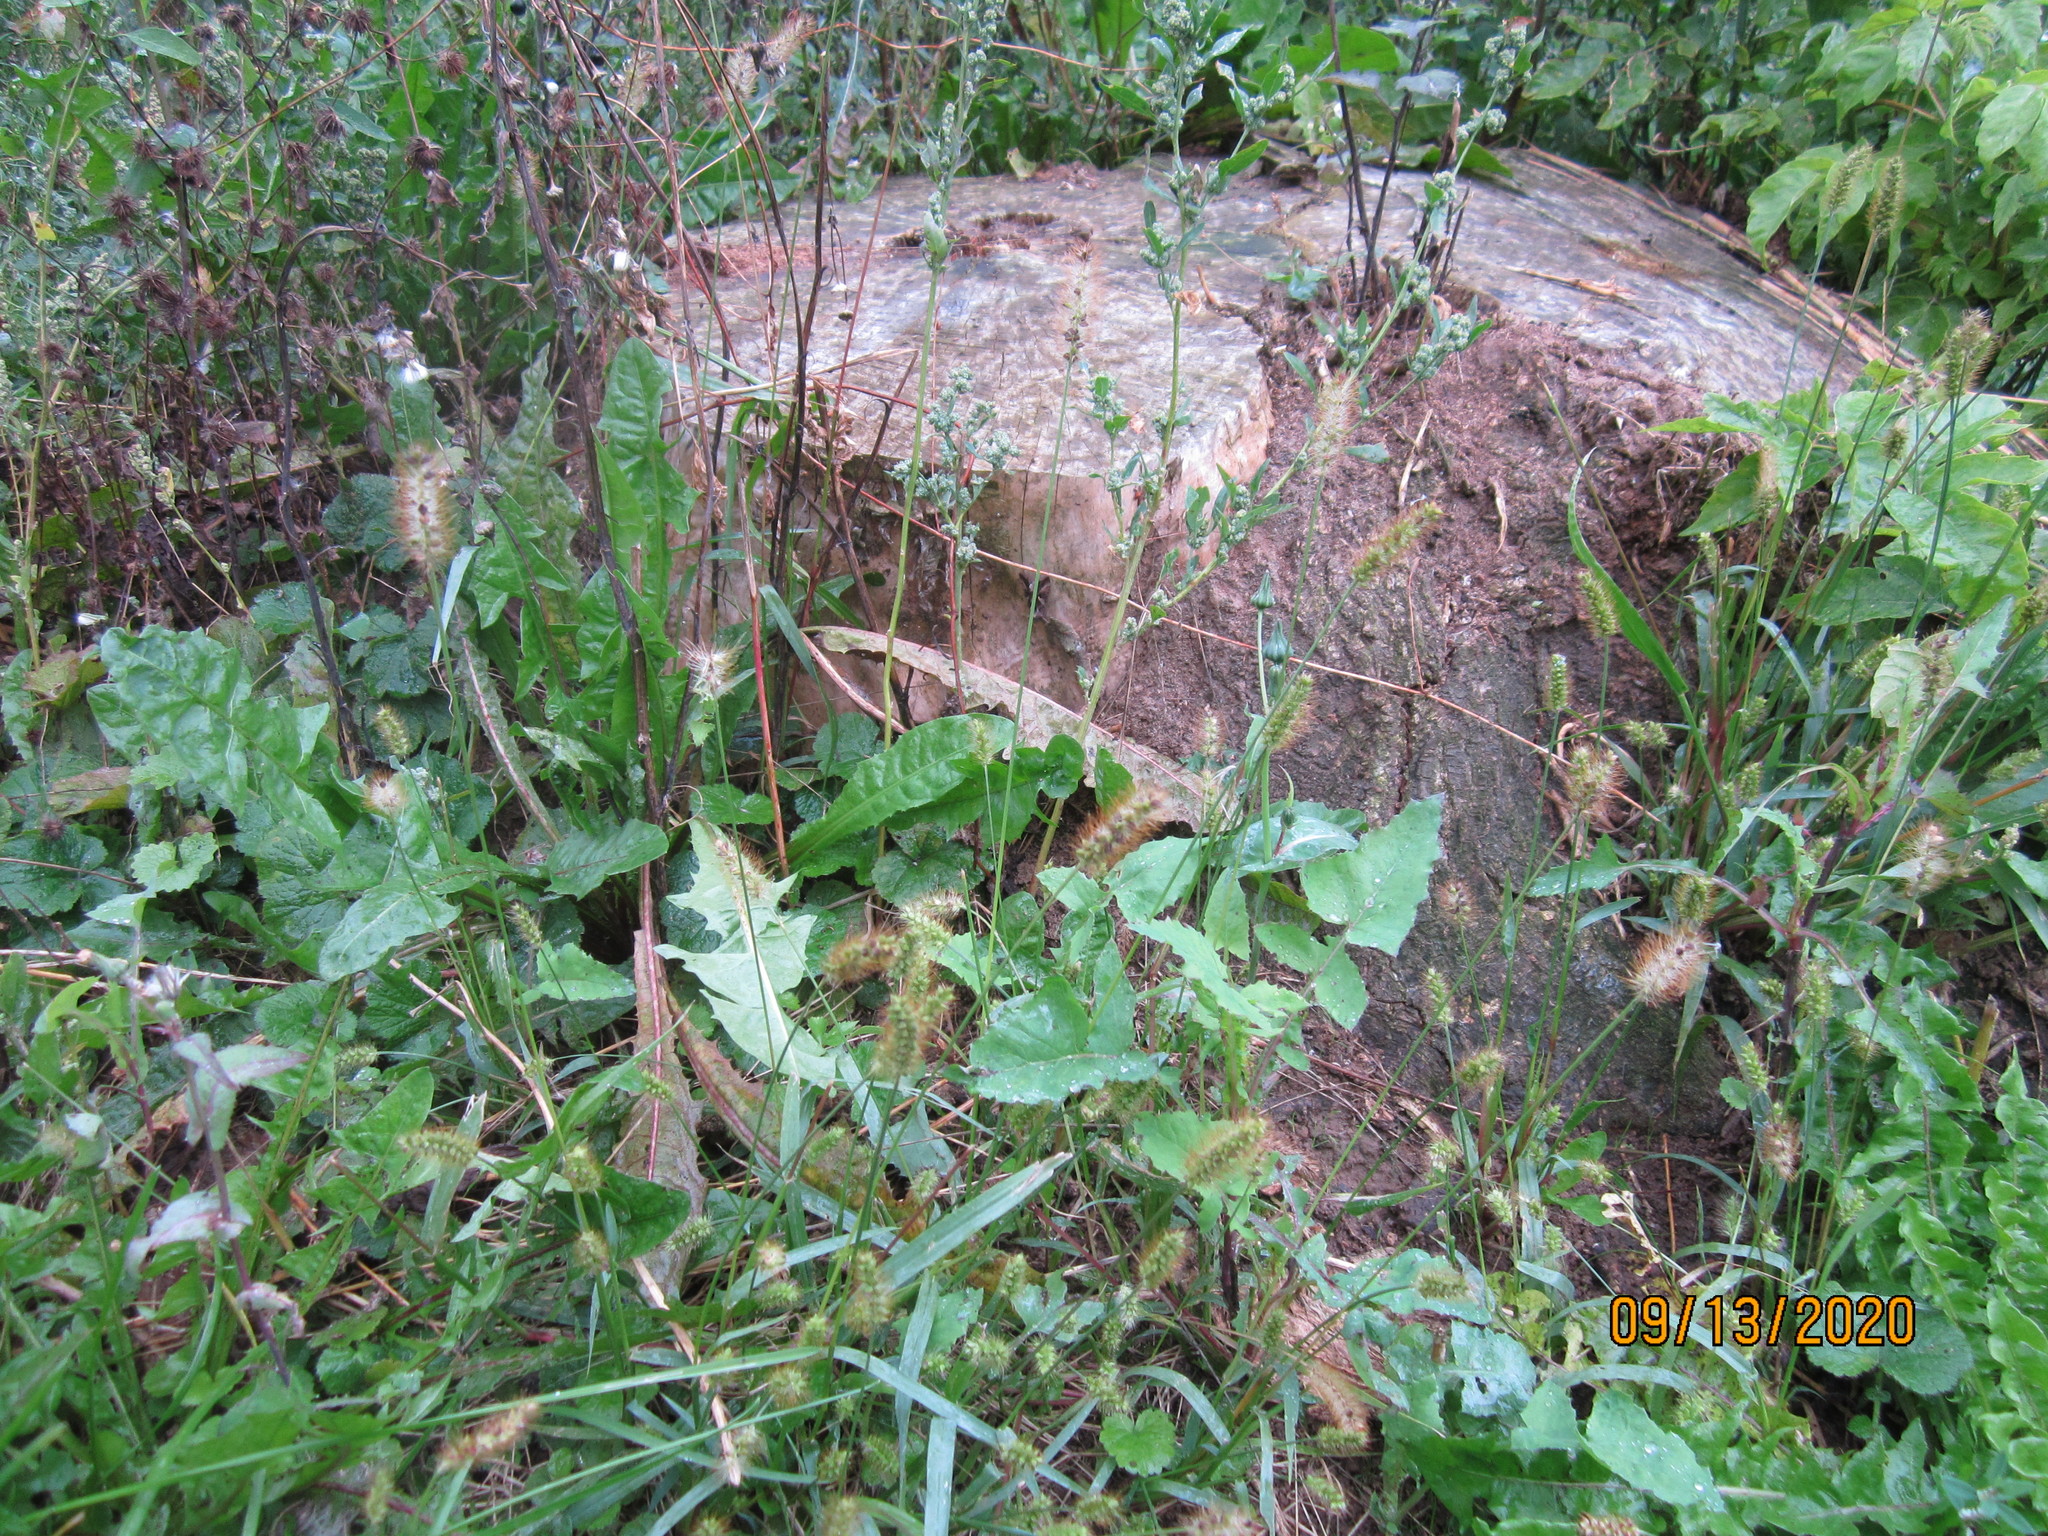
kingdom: Plantae
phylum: Tracheophyta
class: Liliopsida
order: Poales
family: Poaceae
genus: Setaria
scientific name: Setaria pumila
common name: Yellow bristle-grass
